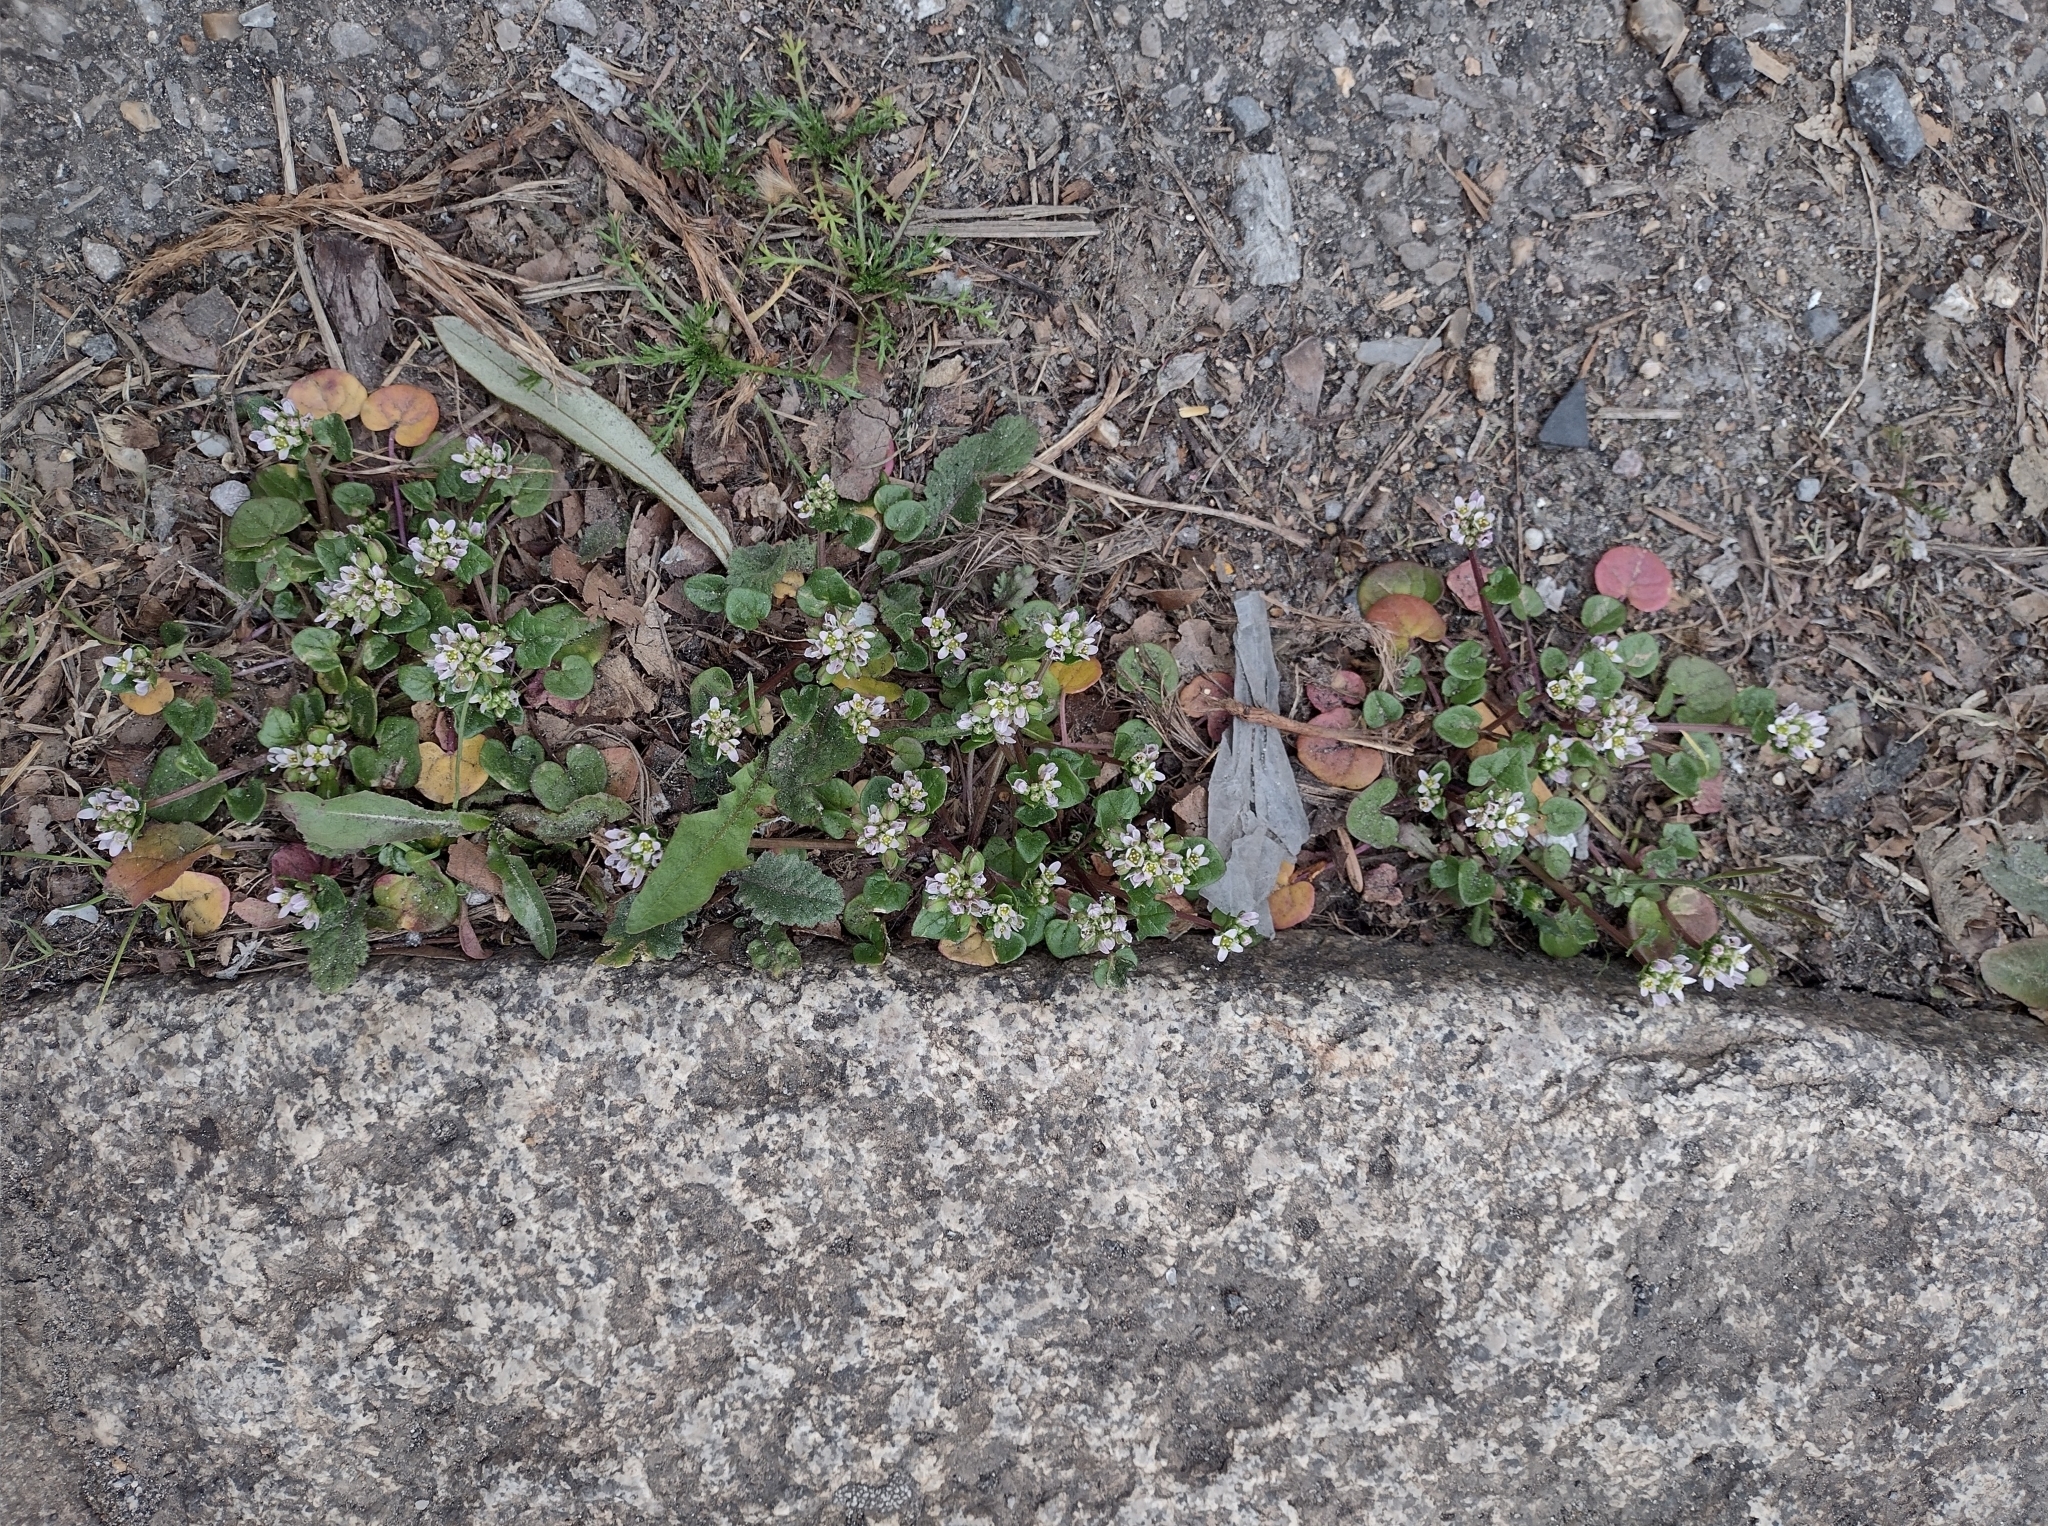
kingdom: Plantae
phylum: Tracheophyta
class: Magnoliopsida
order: Brassicales
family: Brassicaceae
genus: Cochlearia
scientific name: Cochlearia danica
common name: Early scurvygrass
